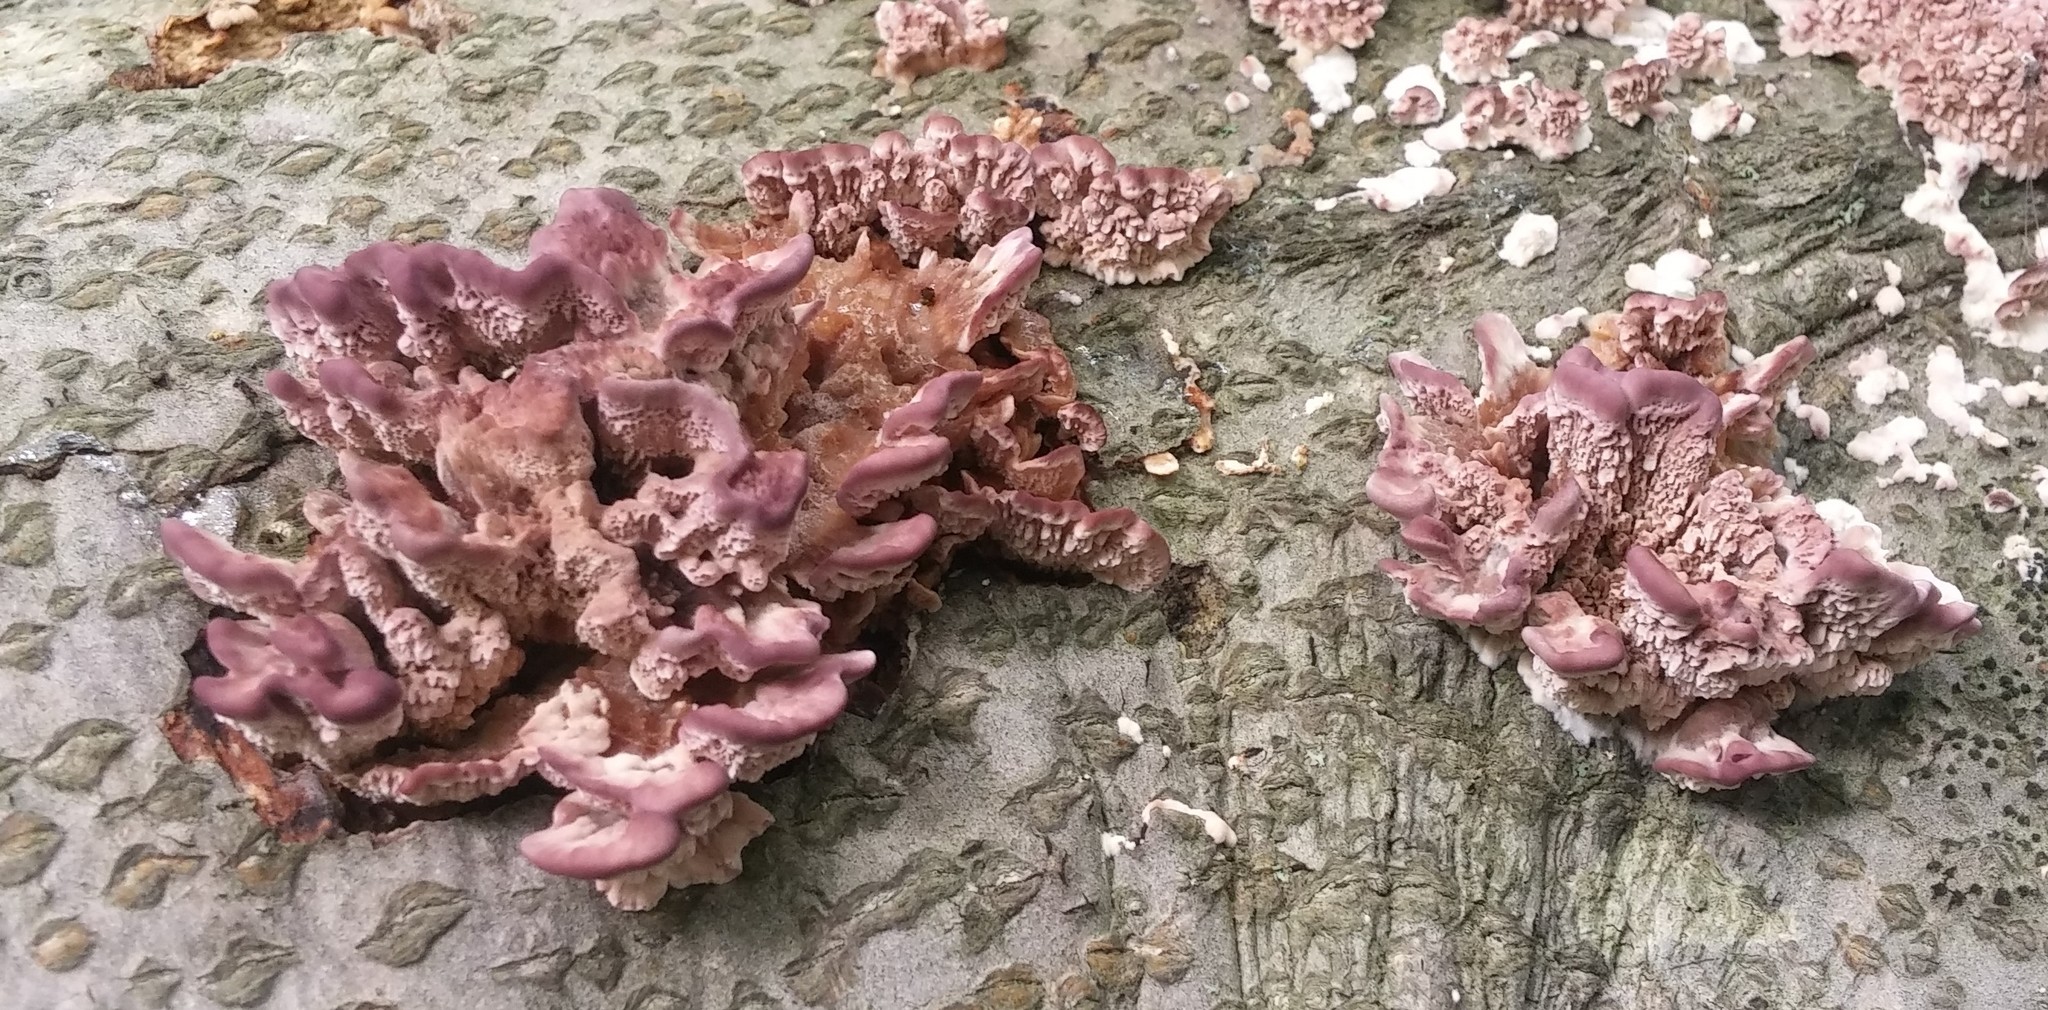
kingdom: Fungi
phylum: Basidiomycota
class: Agaricomycetes
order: Hymenochaetales
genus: Trichaptum
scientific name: Trichaptum biforme
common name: Violet-toothed polypore
